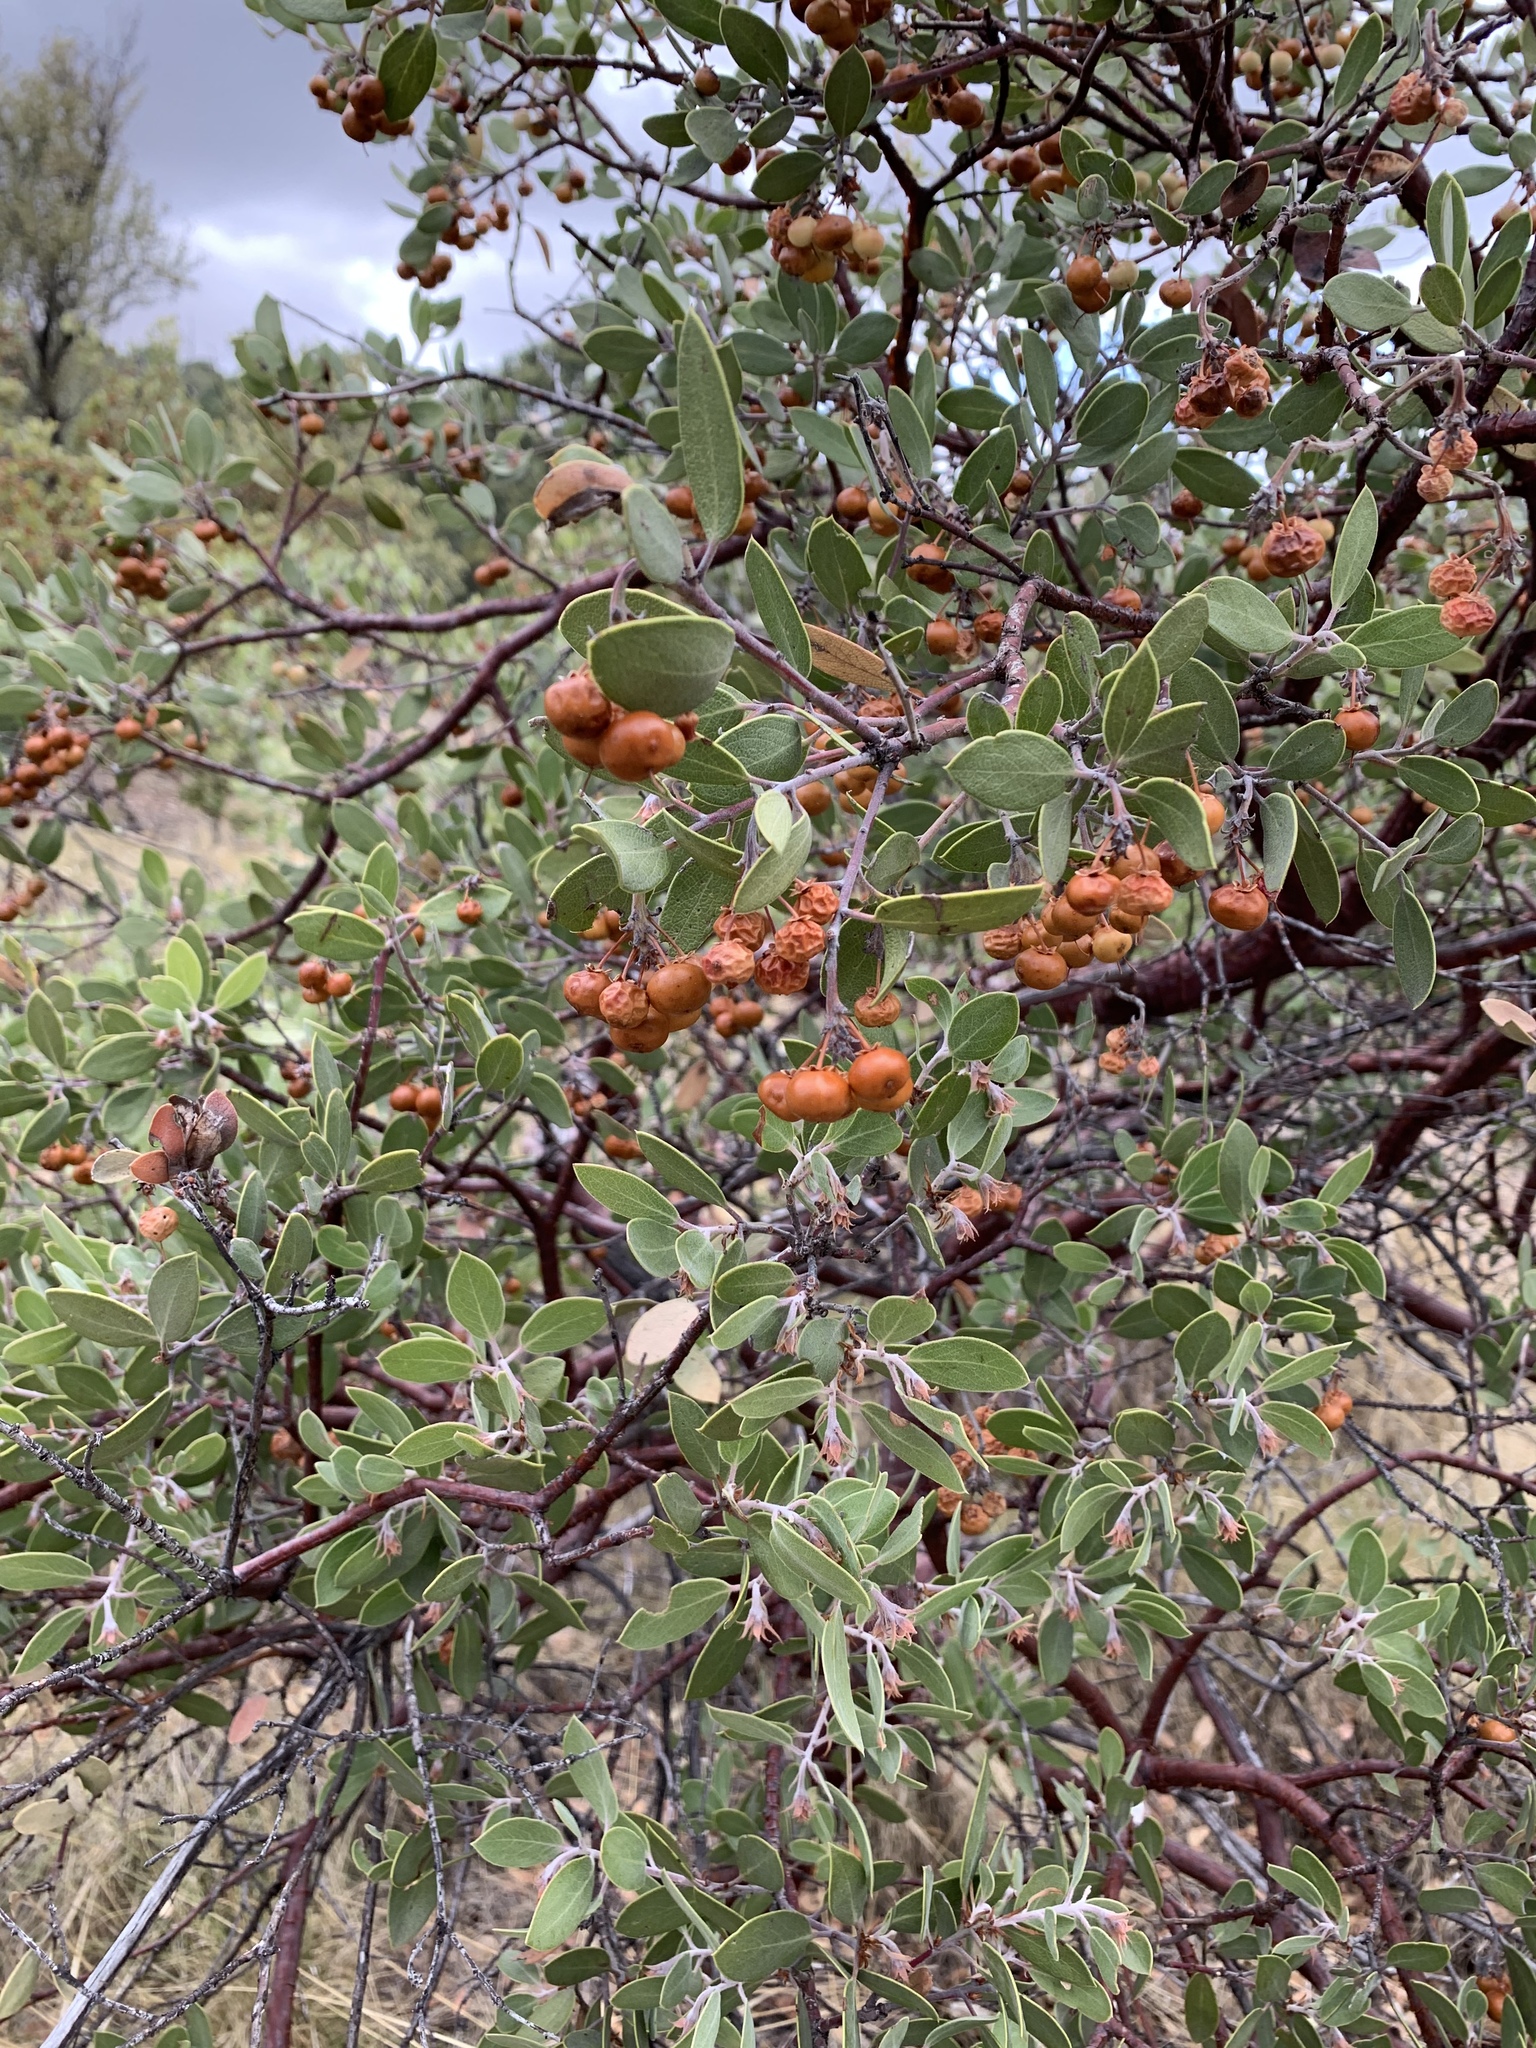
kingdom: Plantae
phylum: Tracheophyta
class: Magnoliopsida
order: Ericales
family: Ericaceae
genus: Arctostaphylos
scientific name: Arctostaphylos pungens
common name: Mexican manzanita
